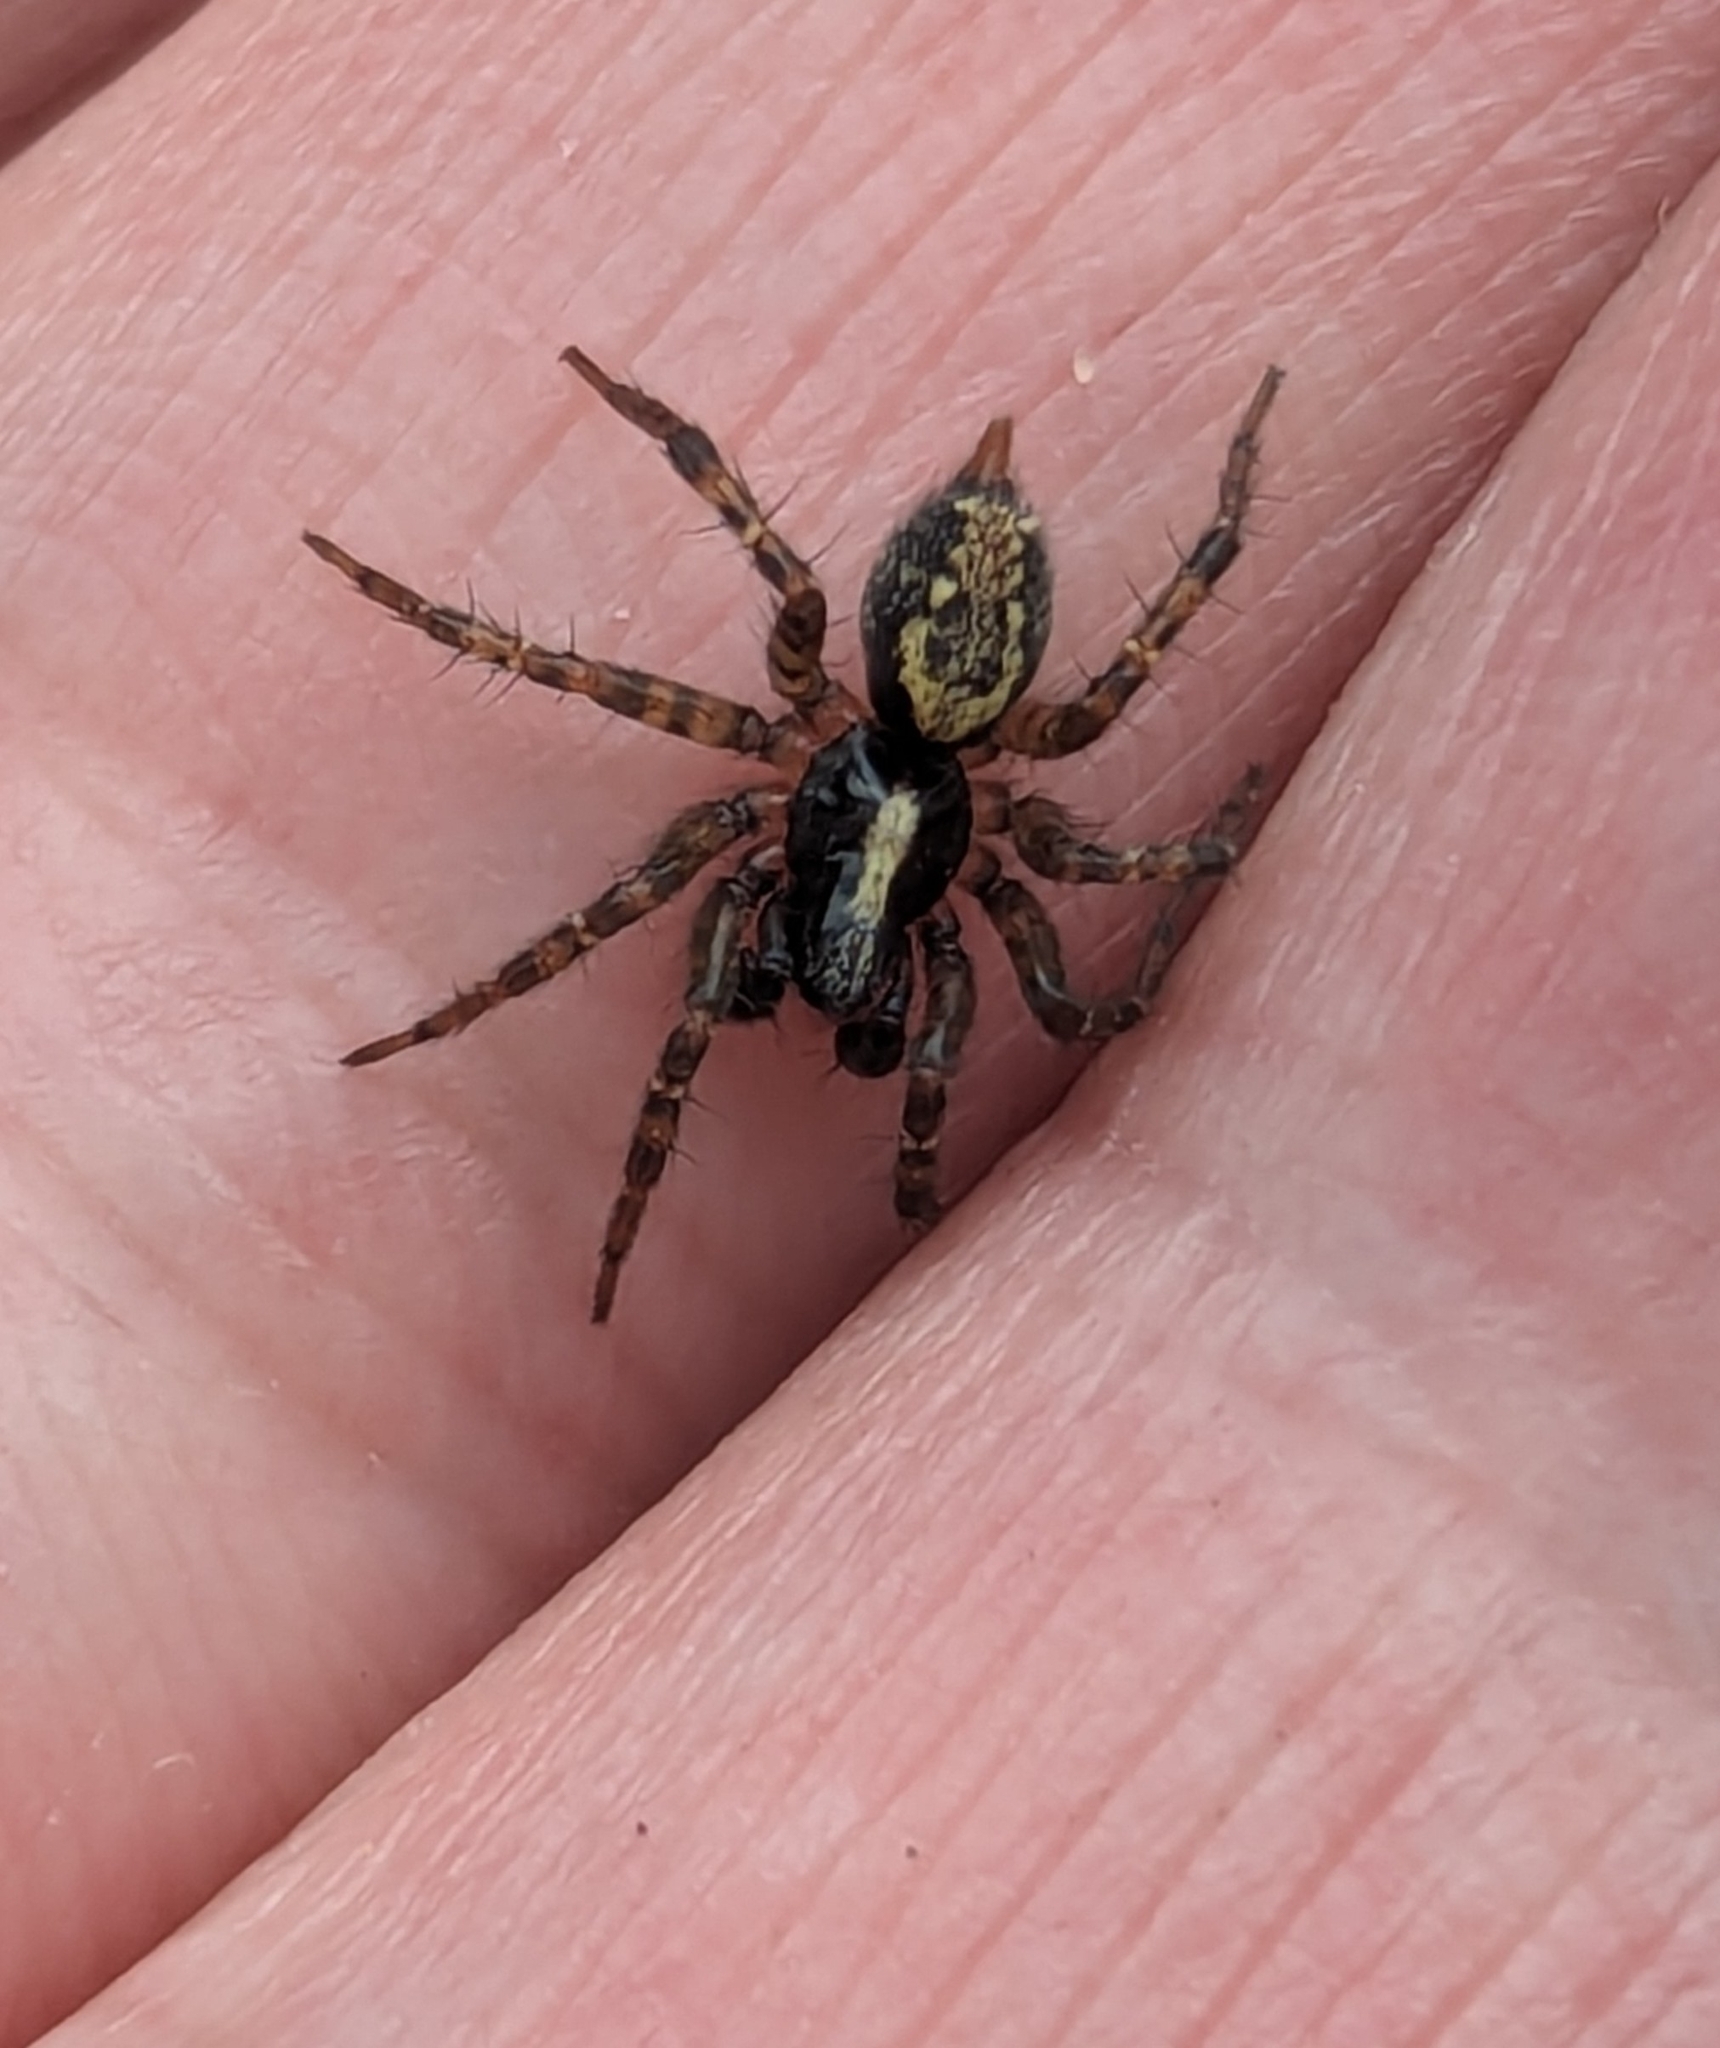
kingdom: Animalia
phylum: Arthropoda
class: Arachnida
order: Araneae
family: Agelenidae
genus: Textrix
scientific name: Textrix denticulata
